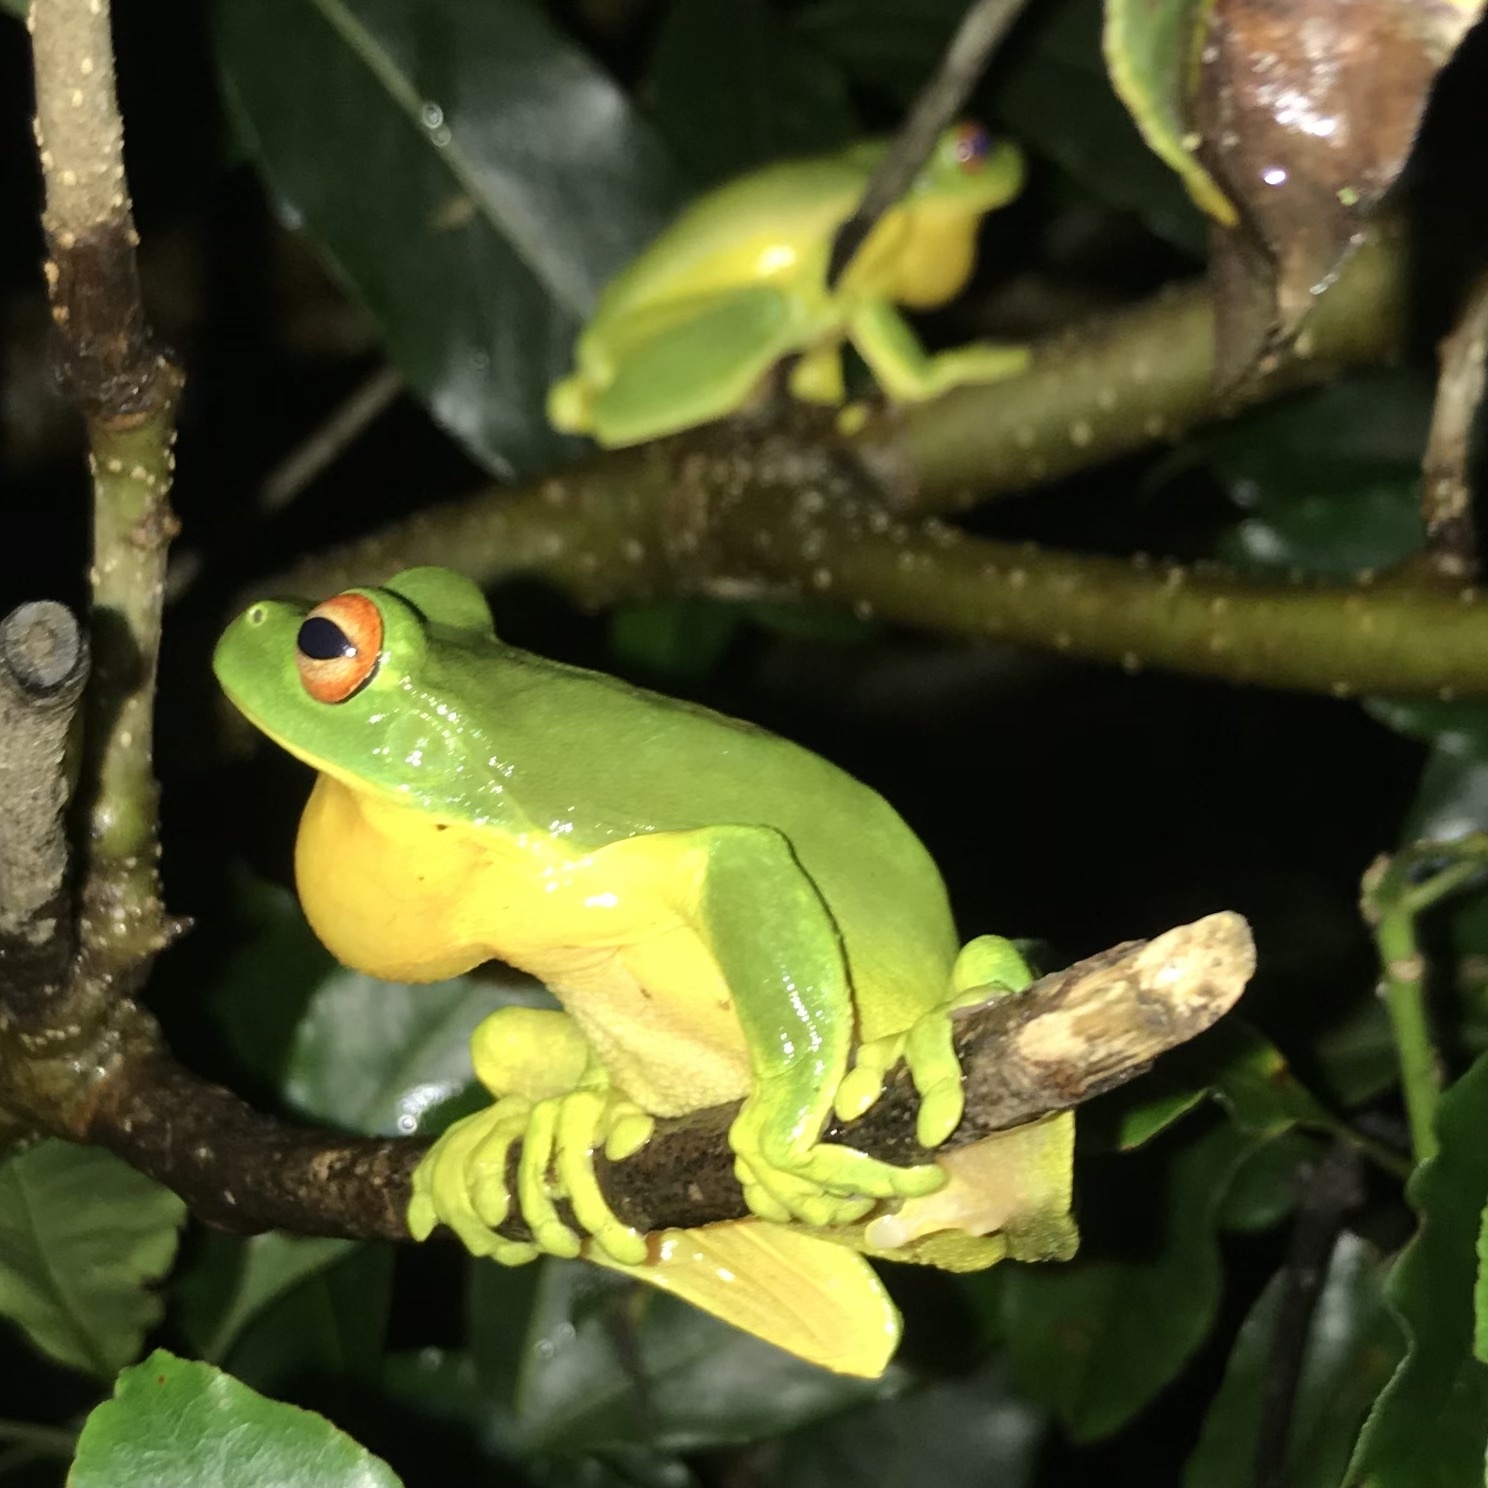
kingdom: Animalia
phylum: Chordata
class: Amphibia
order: Anura
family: Pelodryadidae
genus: Ranoidea
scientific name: Ranoidea chloris
